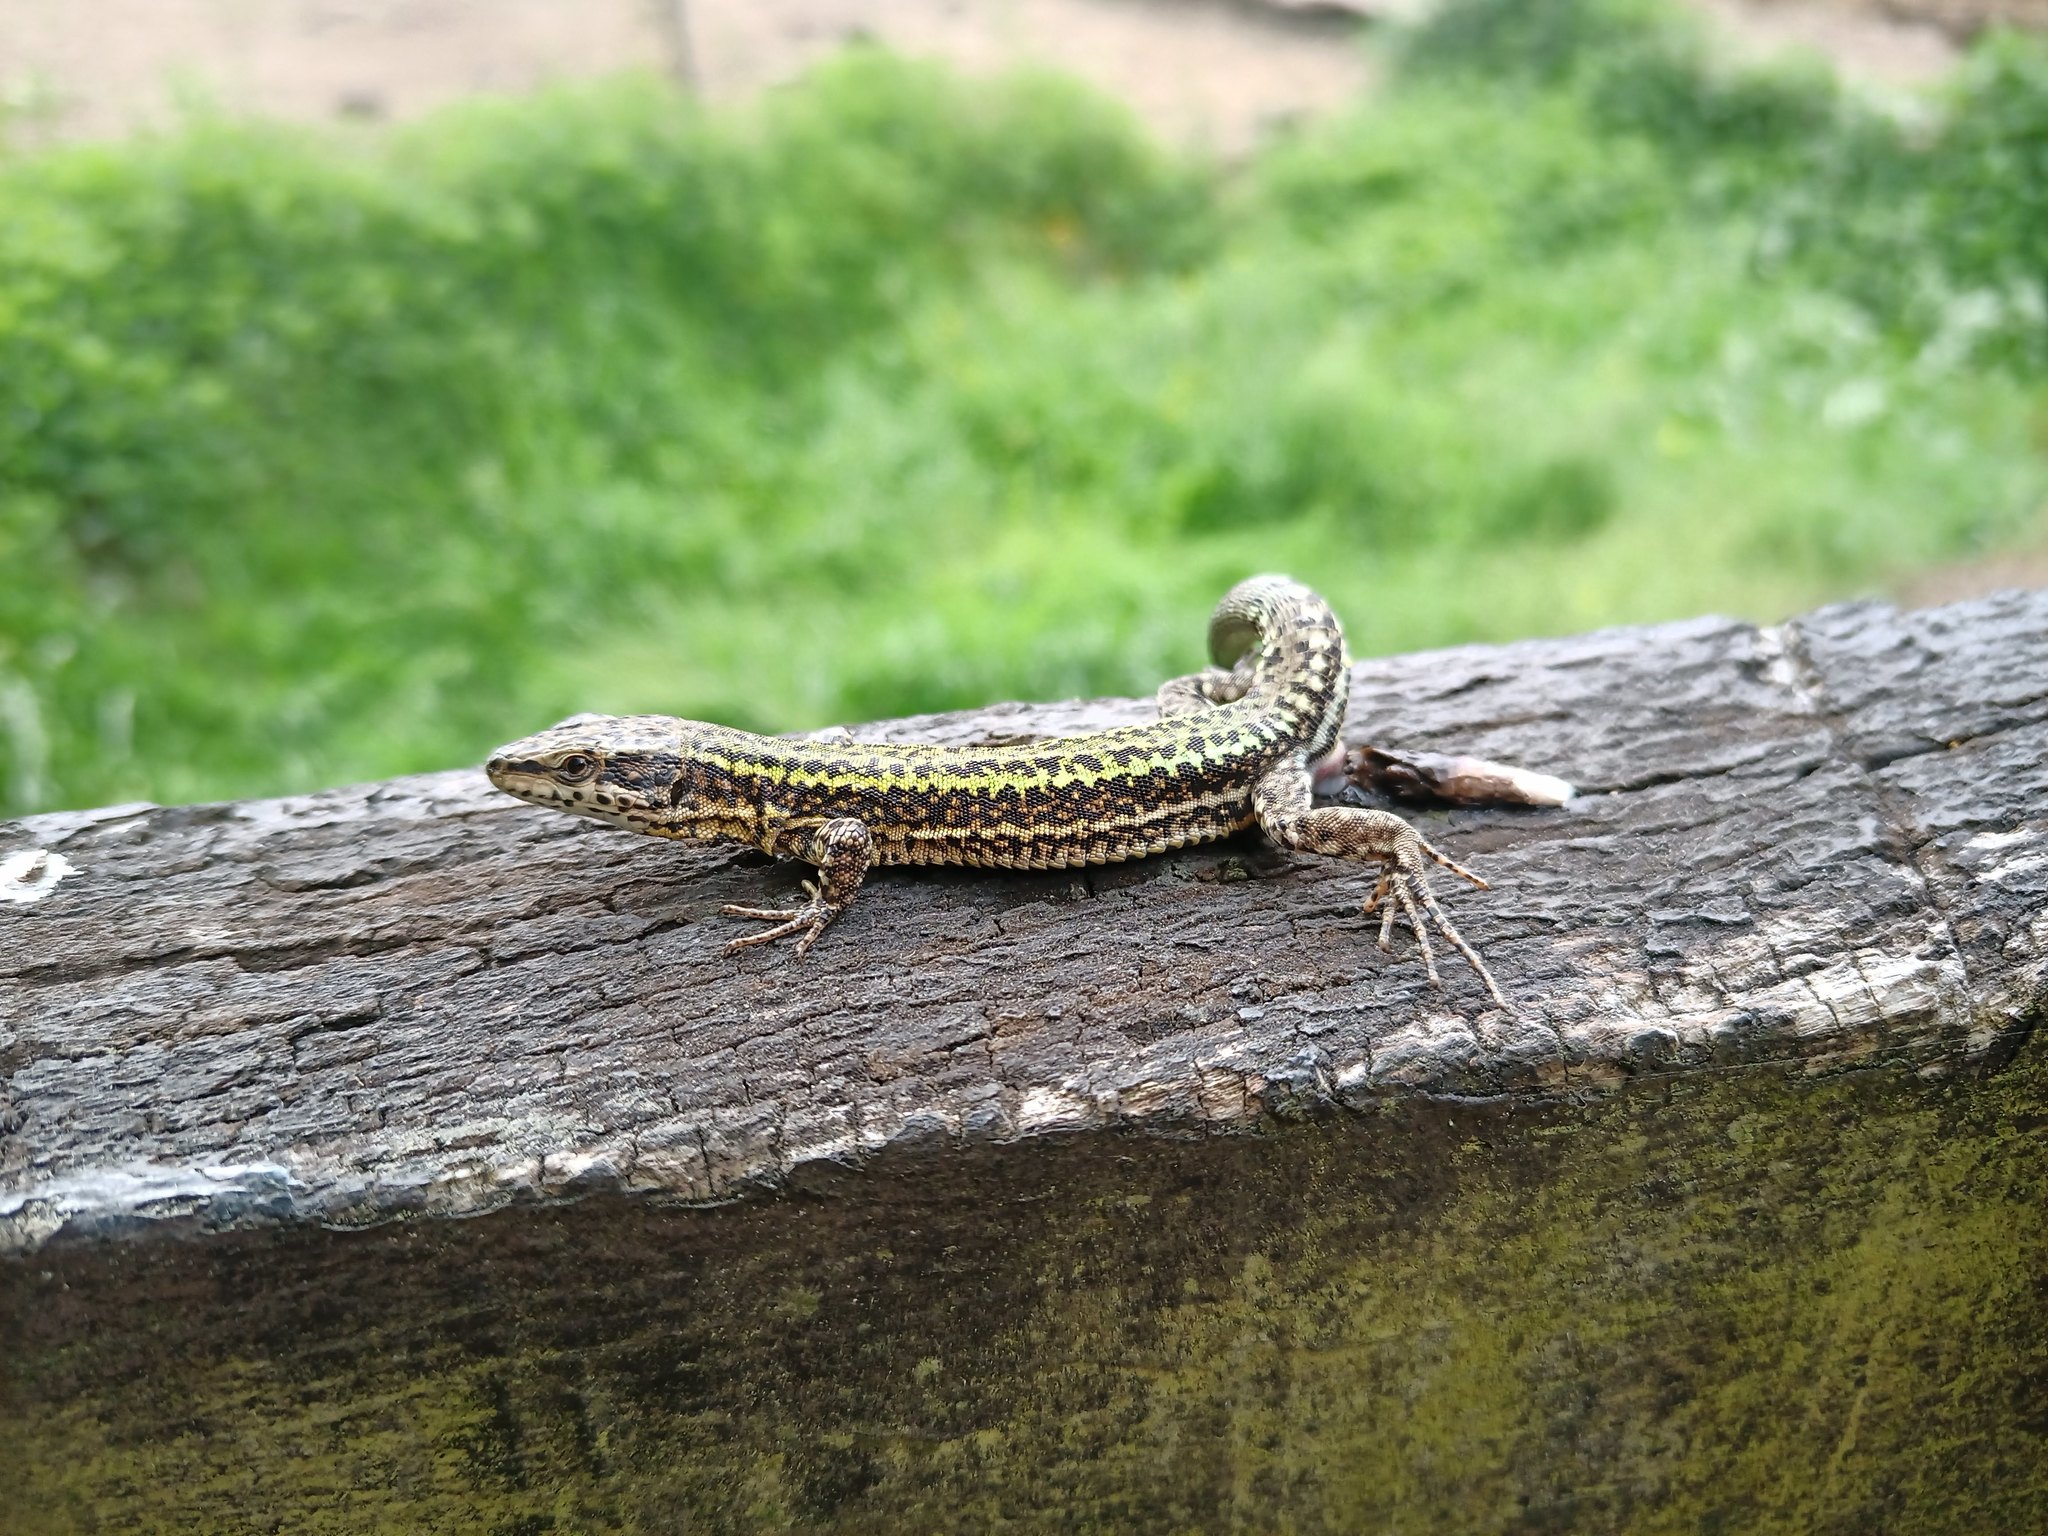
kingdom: Animalia
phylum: Chordata
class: Squamata
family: Lacertidae
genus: Podarcis
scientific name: Podarcis bocagei
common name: Bocage's wall lizard
